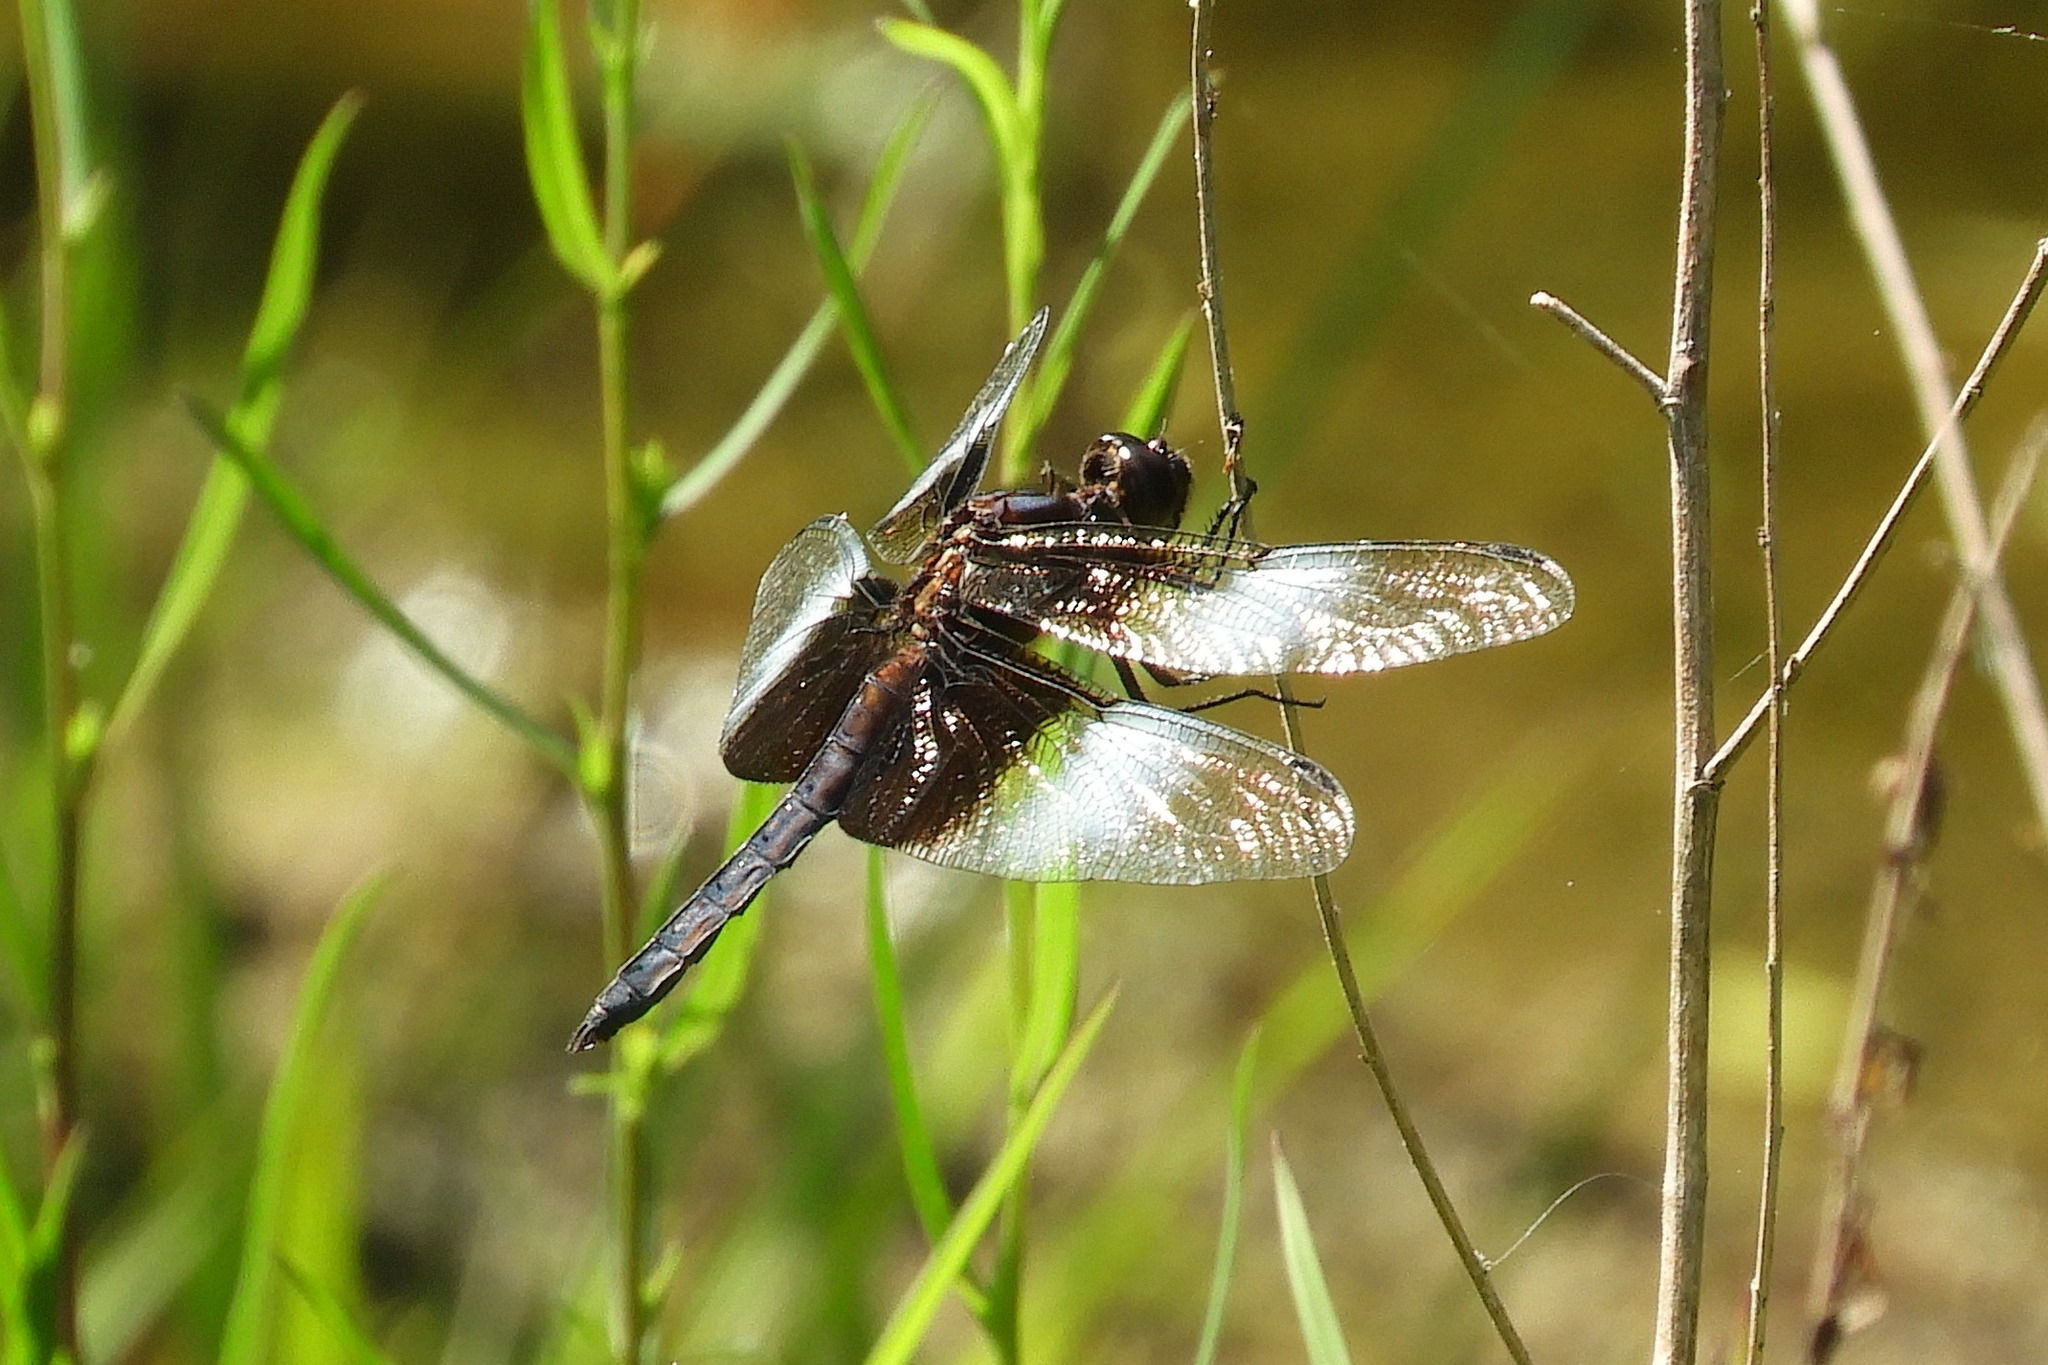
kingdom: Animalia
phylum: Arthropoda
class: Insecta
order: Odonata
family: Libellulidae
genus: Libellula
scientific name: Libellula luctuosa
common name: Widow skimmer
